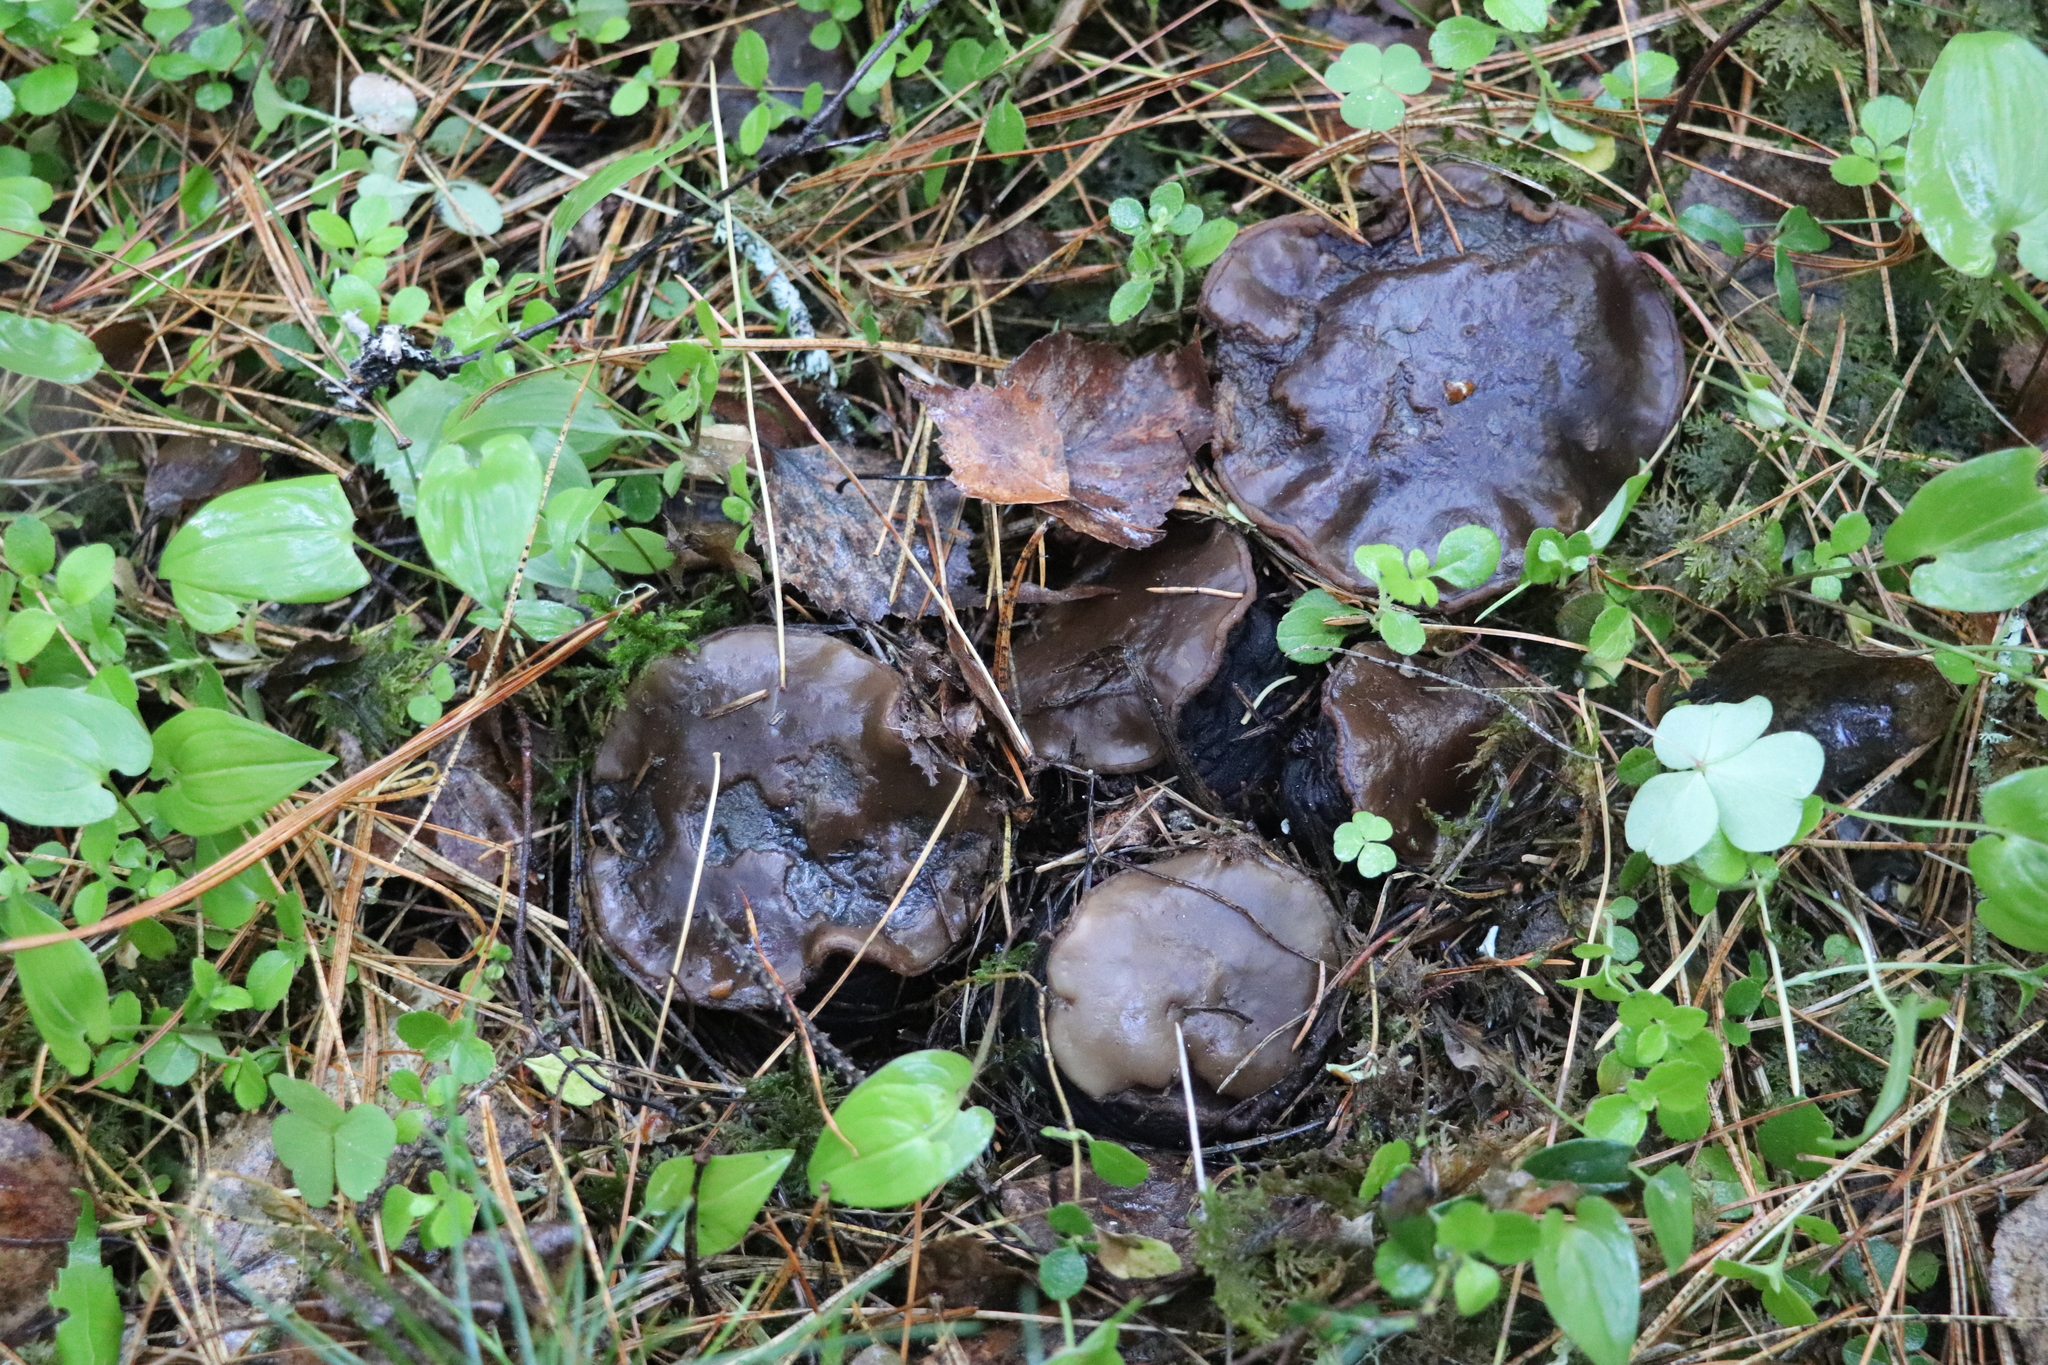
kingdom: Fungi
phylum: Ascomycota
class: Pezizomycetes
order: Pezizales
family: Sarcosomataceae
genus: Sarcosoma
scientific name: Sarcosoma globosum
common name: Charred-pancake cup
